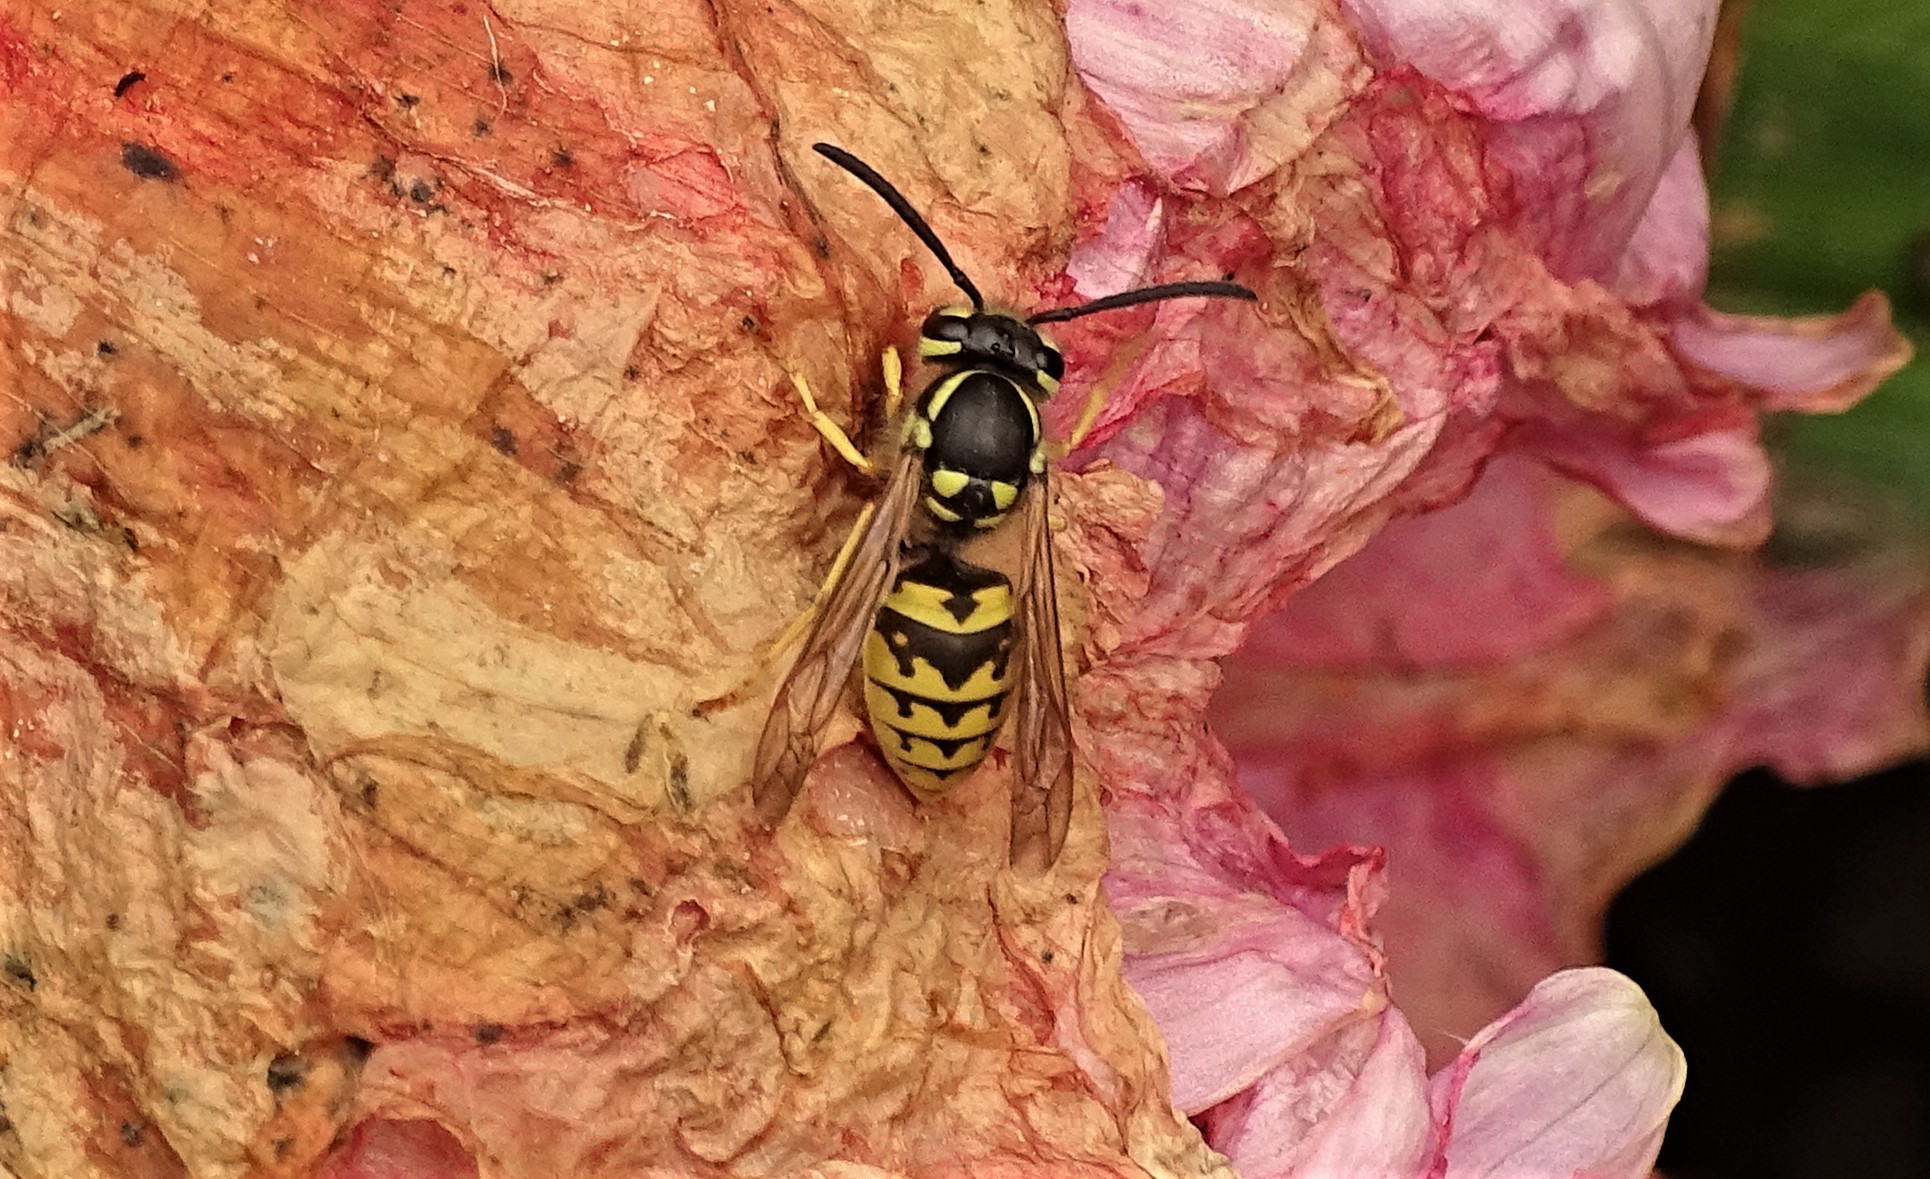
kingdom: Animalia
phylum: Arthropoda
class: Insecta
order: Hymenoptera
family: Vespidae
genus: Vespula
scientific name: Vespula germanica
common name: German wasp
